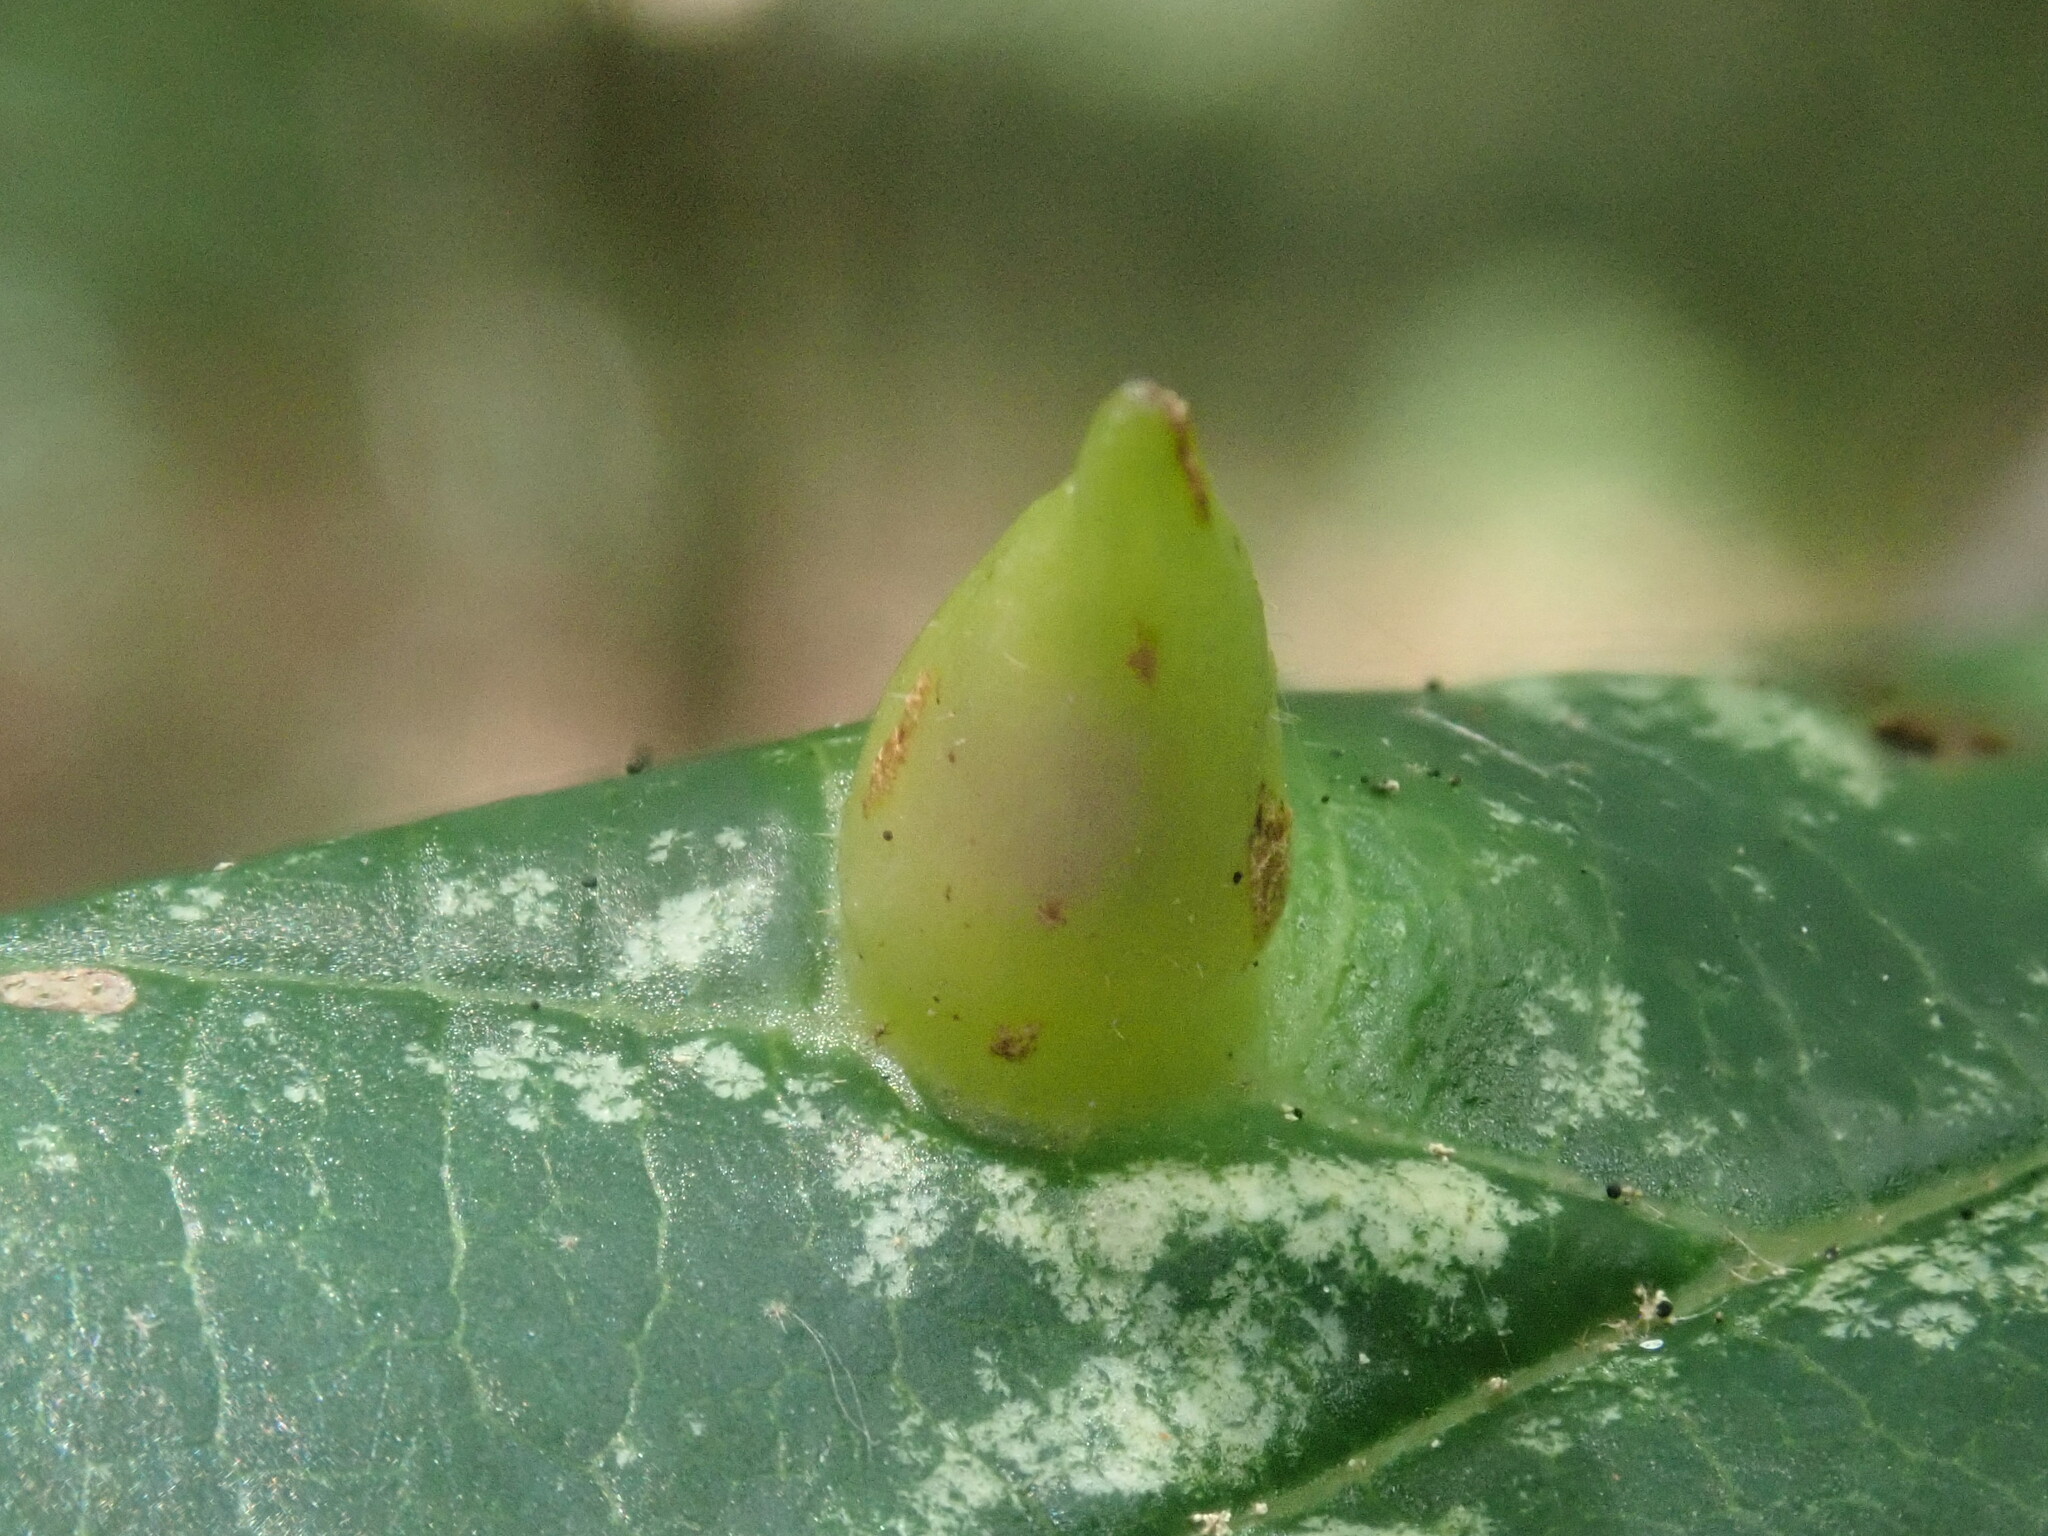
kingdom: Animalia
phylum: Arthropoda
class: Insecta
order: Hemiptera
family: Aphididae
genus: Hormaphis
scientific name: Hormaphis hamamelidis
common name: Witch-hazel cone gall aphid
